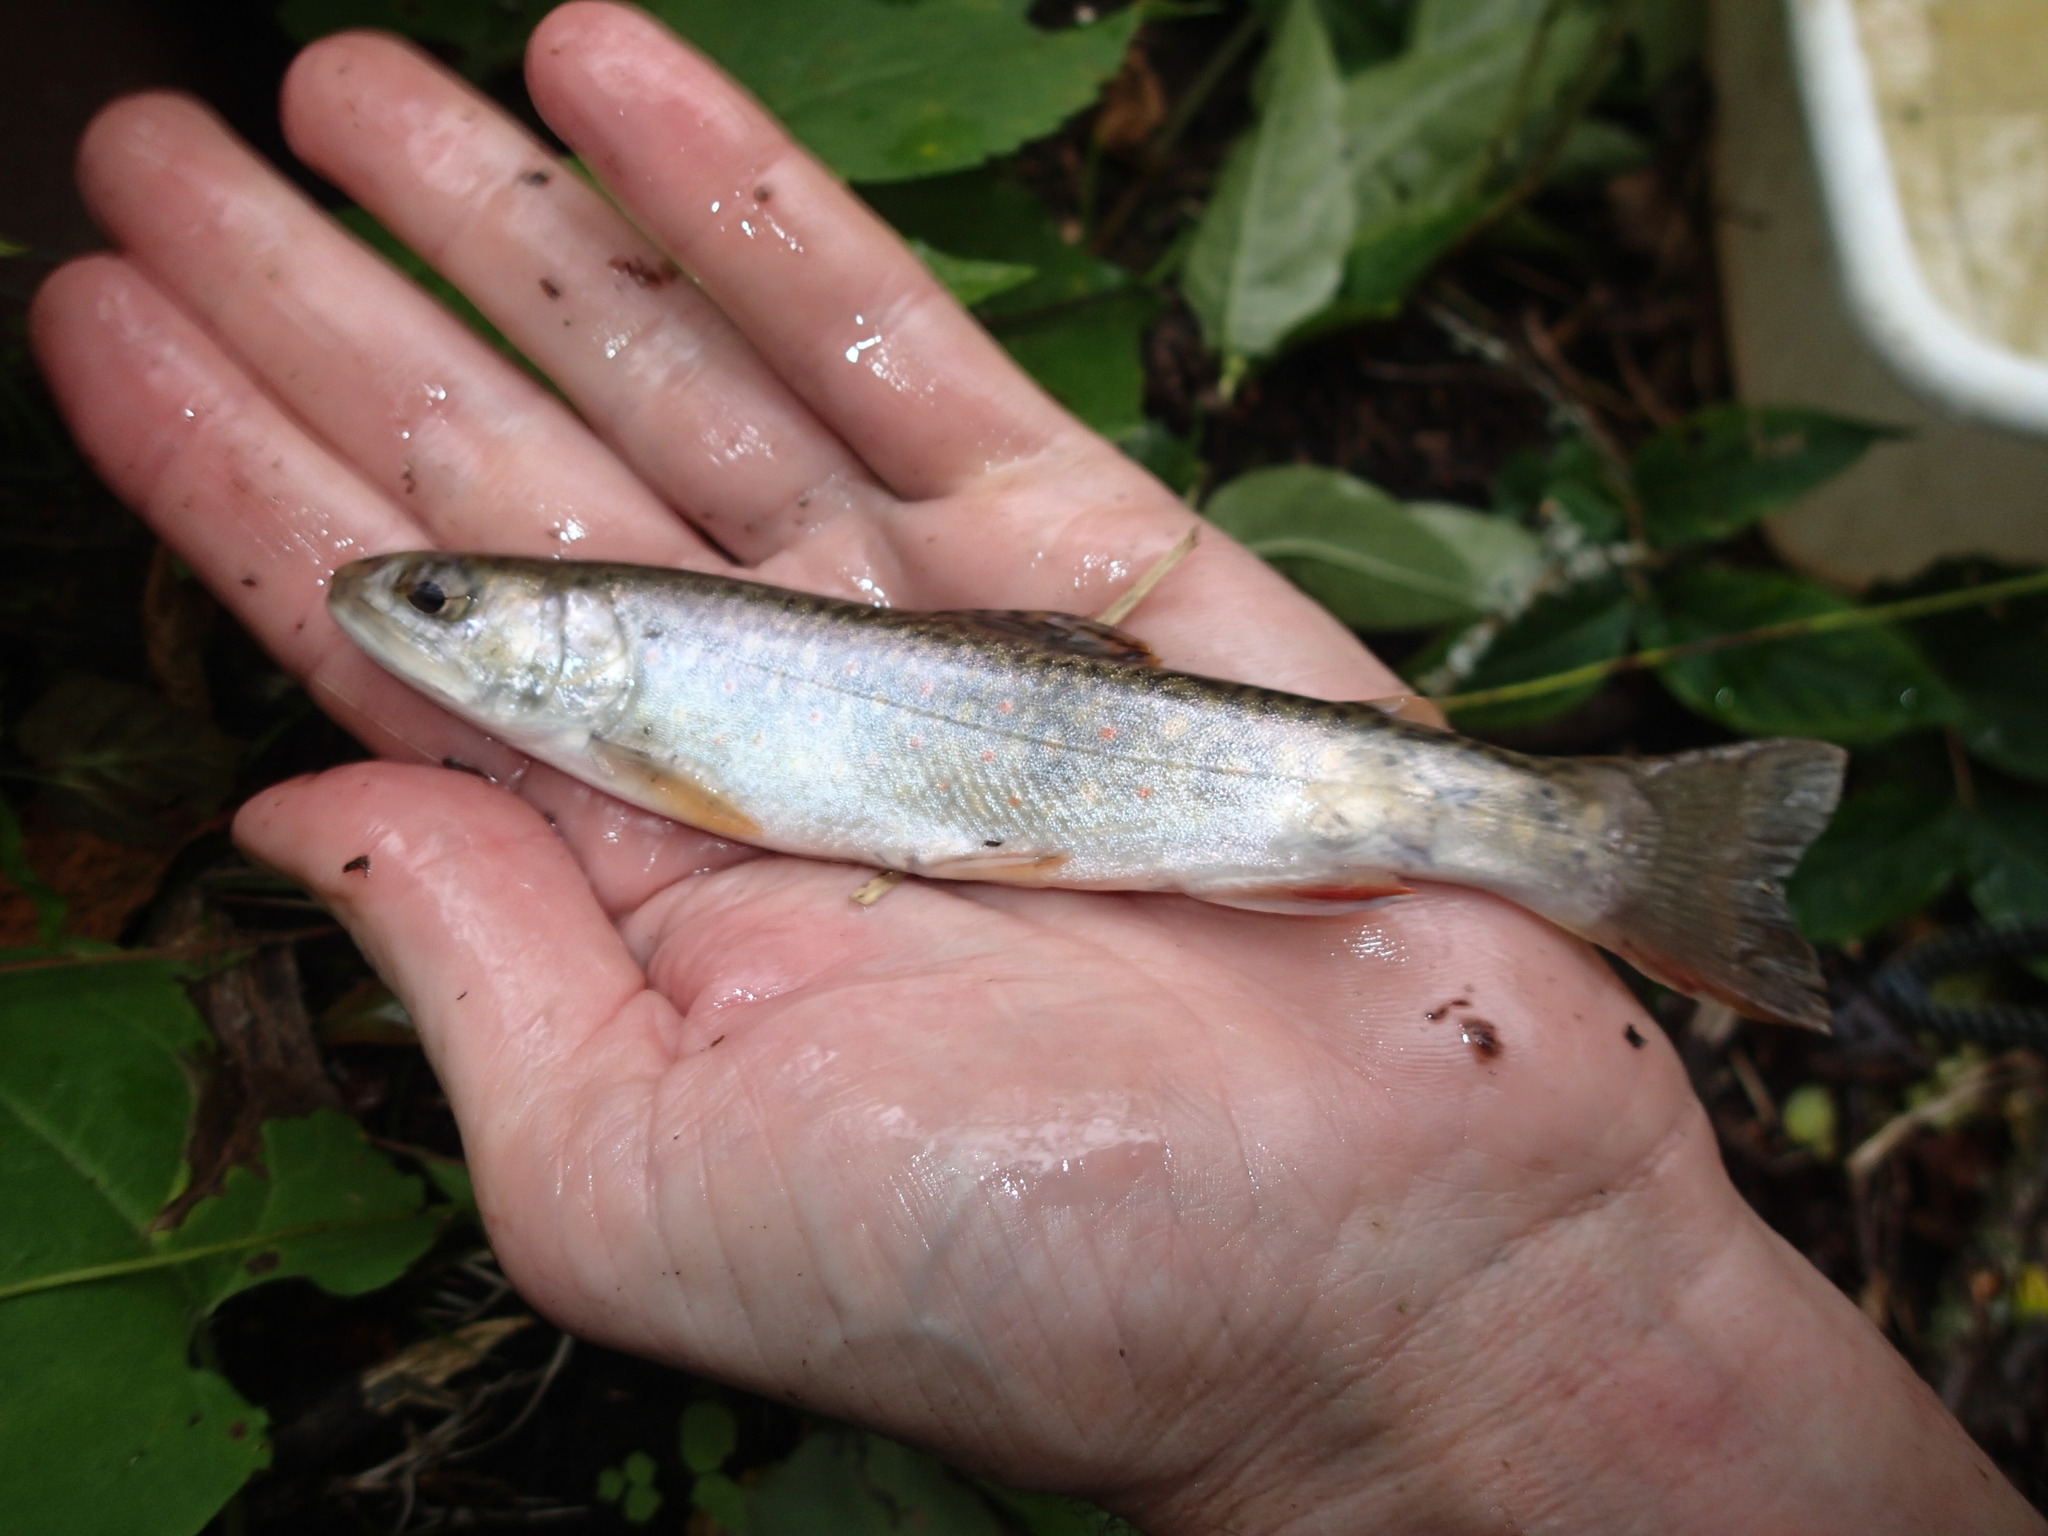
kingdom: Animalia
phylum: Chordata
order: Salmoniformes
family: Salmonidae
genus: Salvelinus
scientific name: Salvelinus fontinalis
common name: Brook trout
